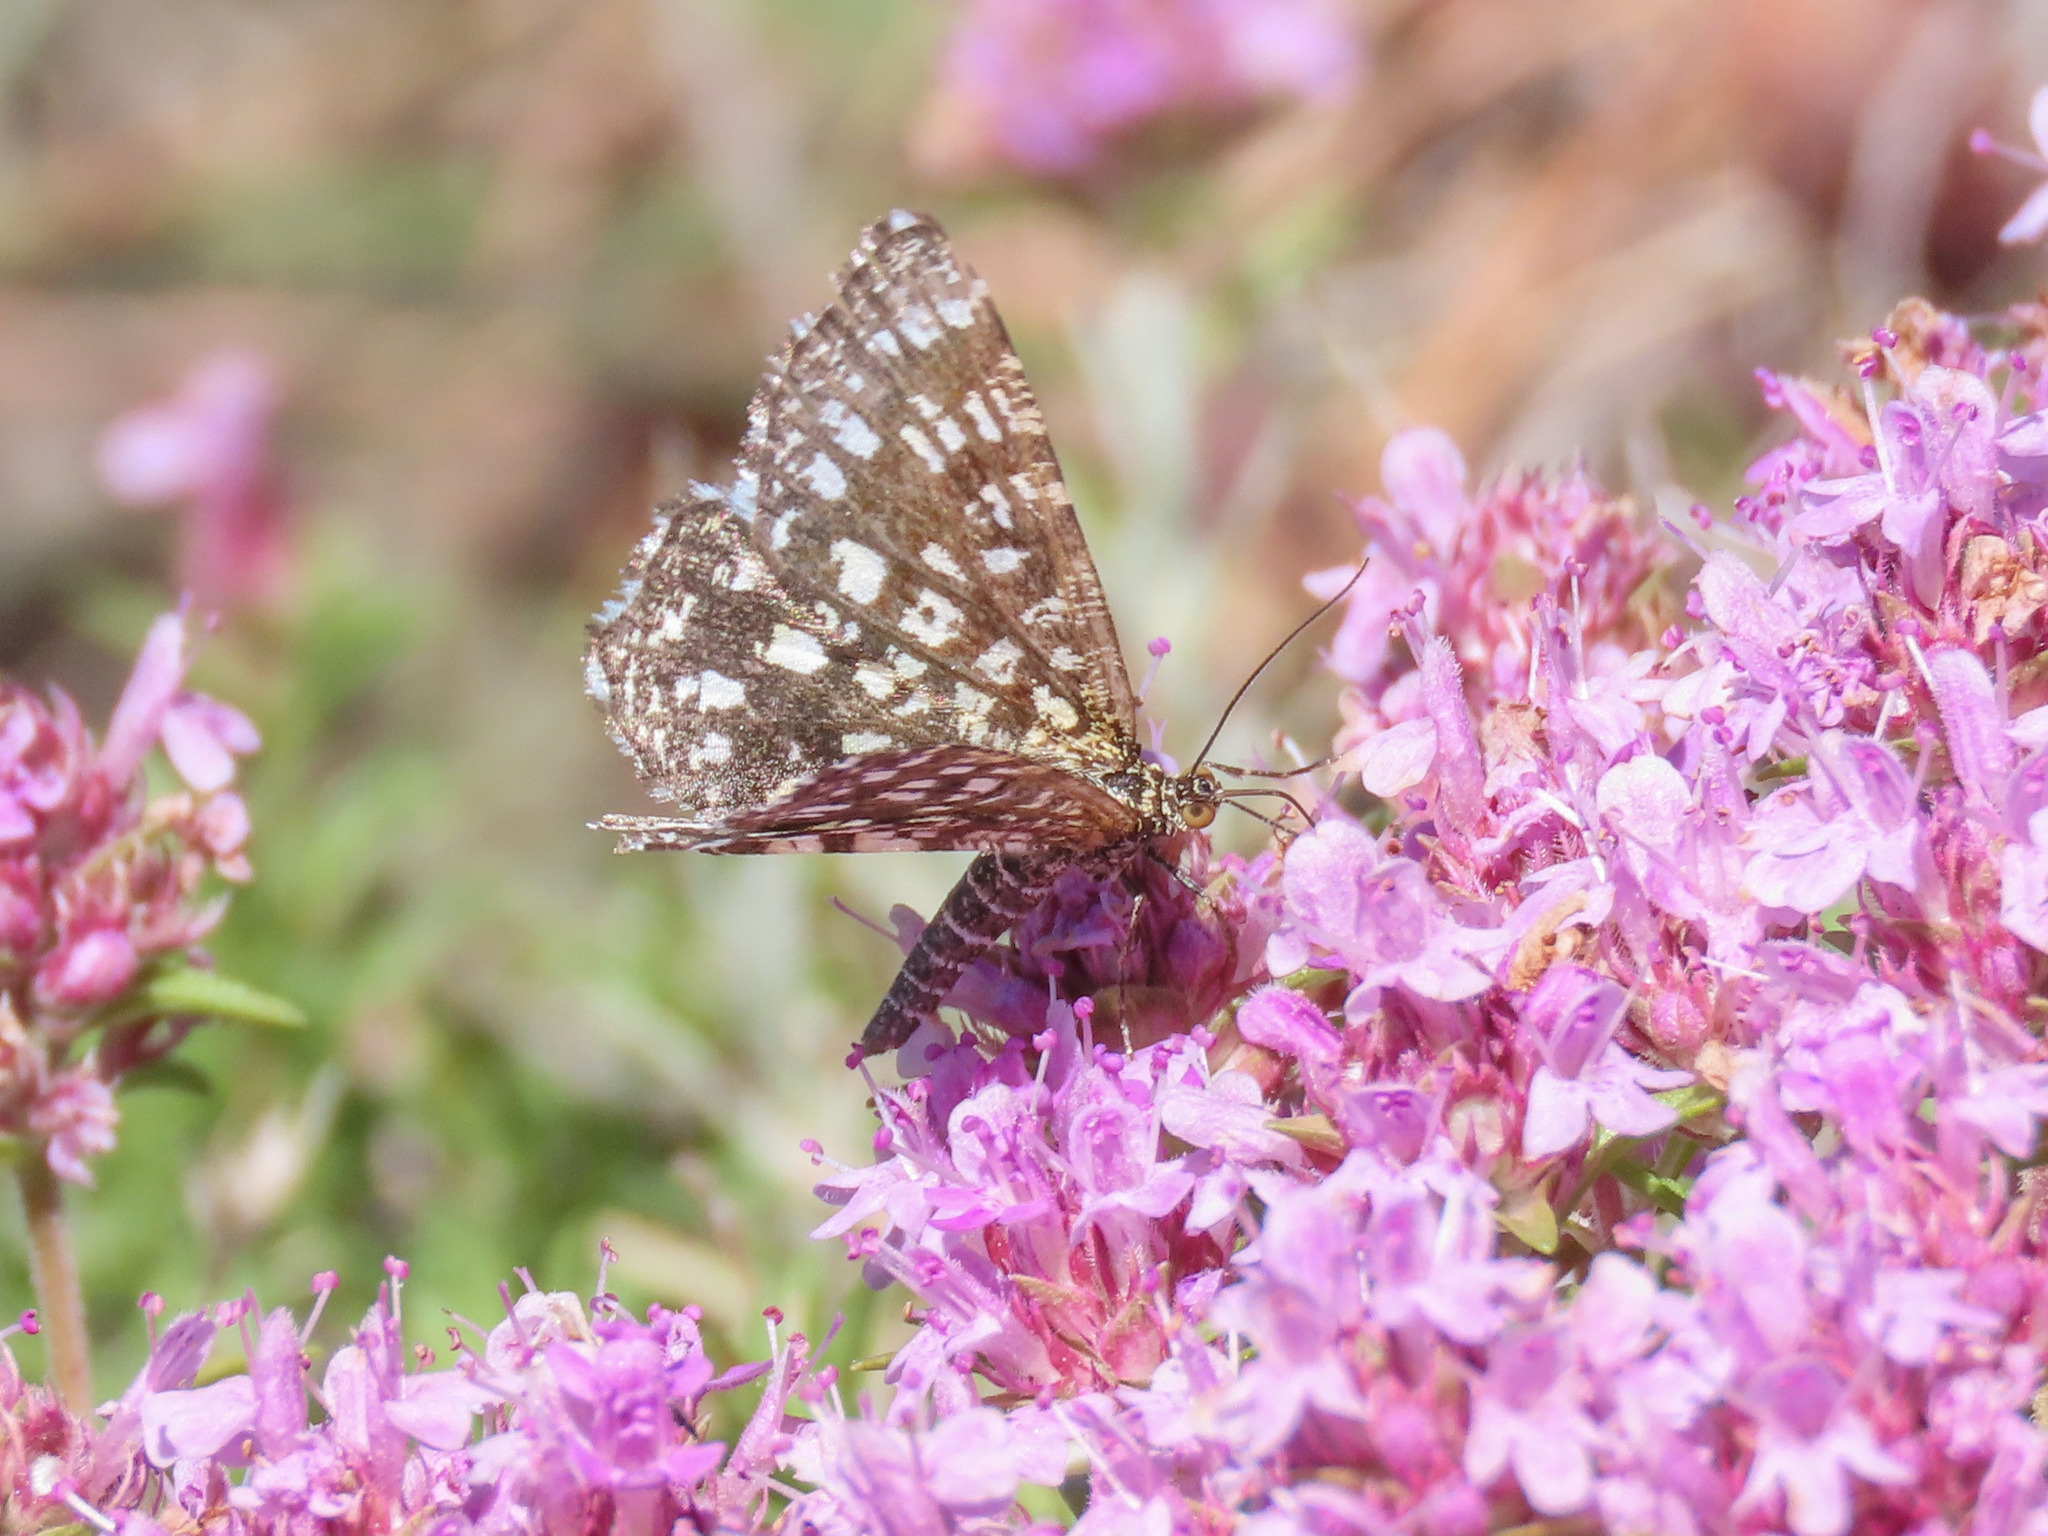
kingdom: Animalia
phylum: Arthropoda
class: Insecta
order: Lepidoptera
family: Geometridae
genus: Chiasmia
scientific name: Chiasmia clathrata
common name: Latticed heath
